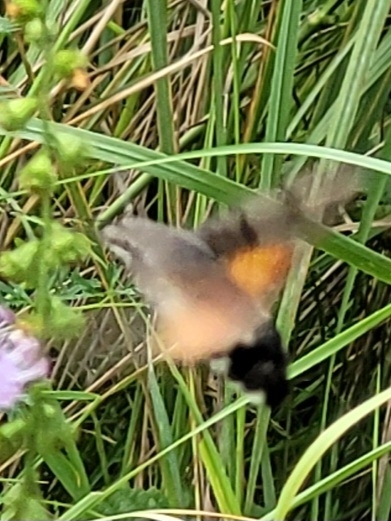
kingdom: Animalia
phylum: Arthropoda
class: Insecta
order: Lepidoptera
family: Sphingidae
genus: Macroglossum
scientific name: Macroglossum stellatarum
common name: Humming-bird hawk-moth
